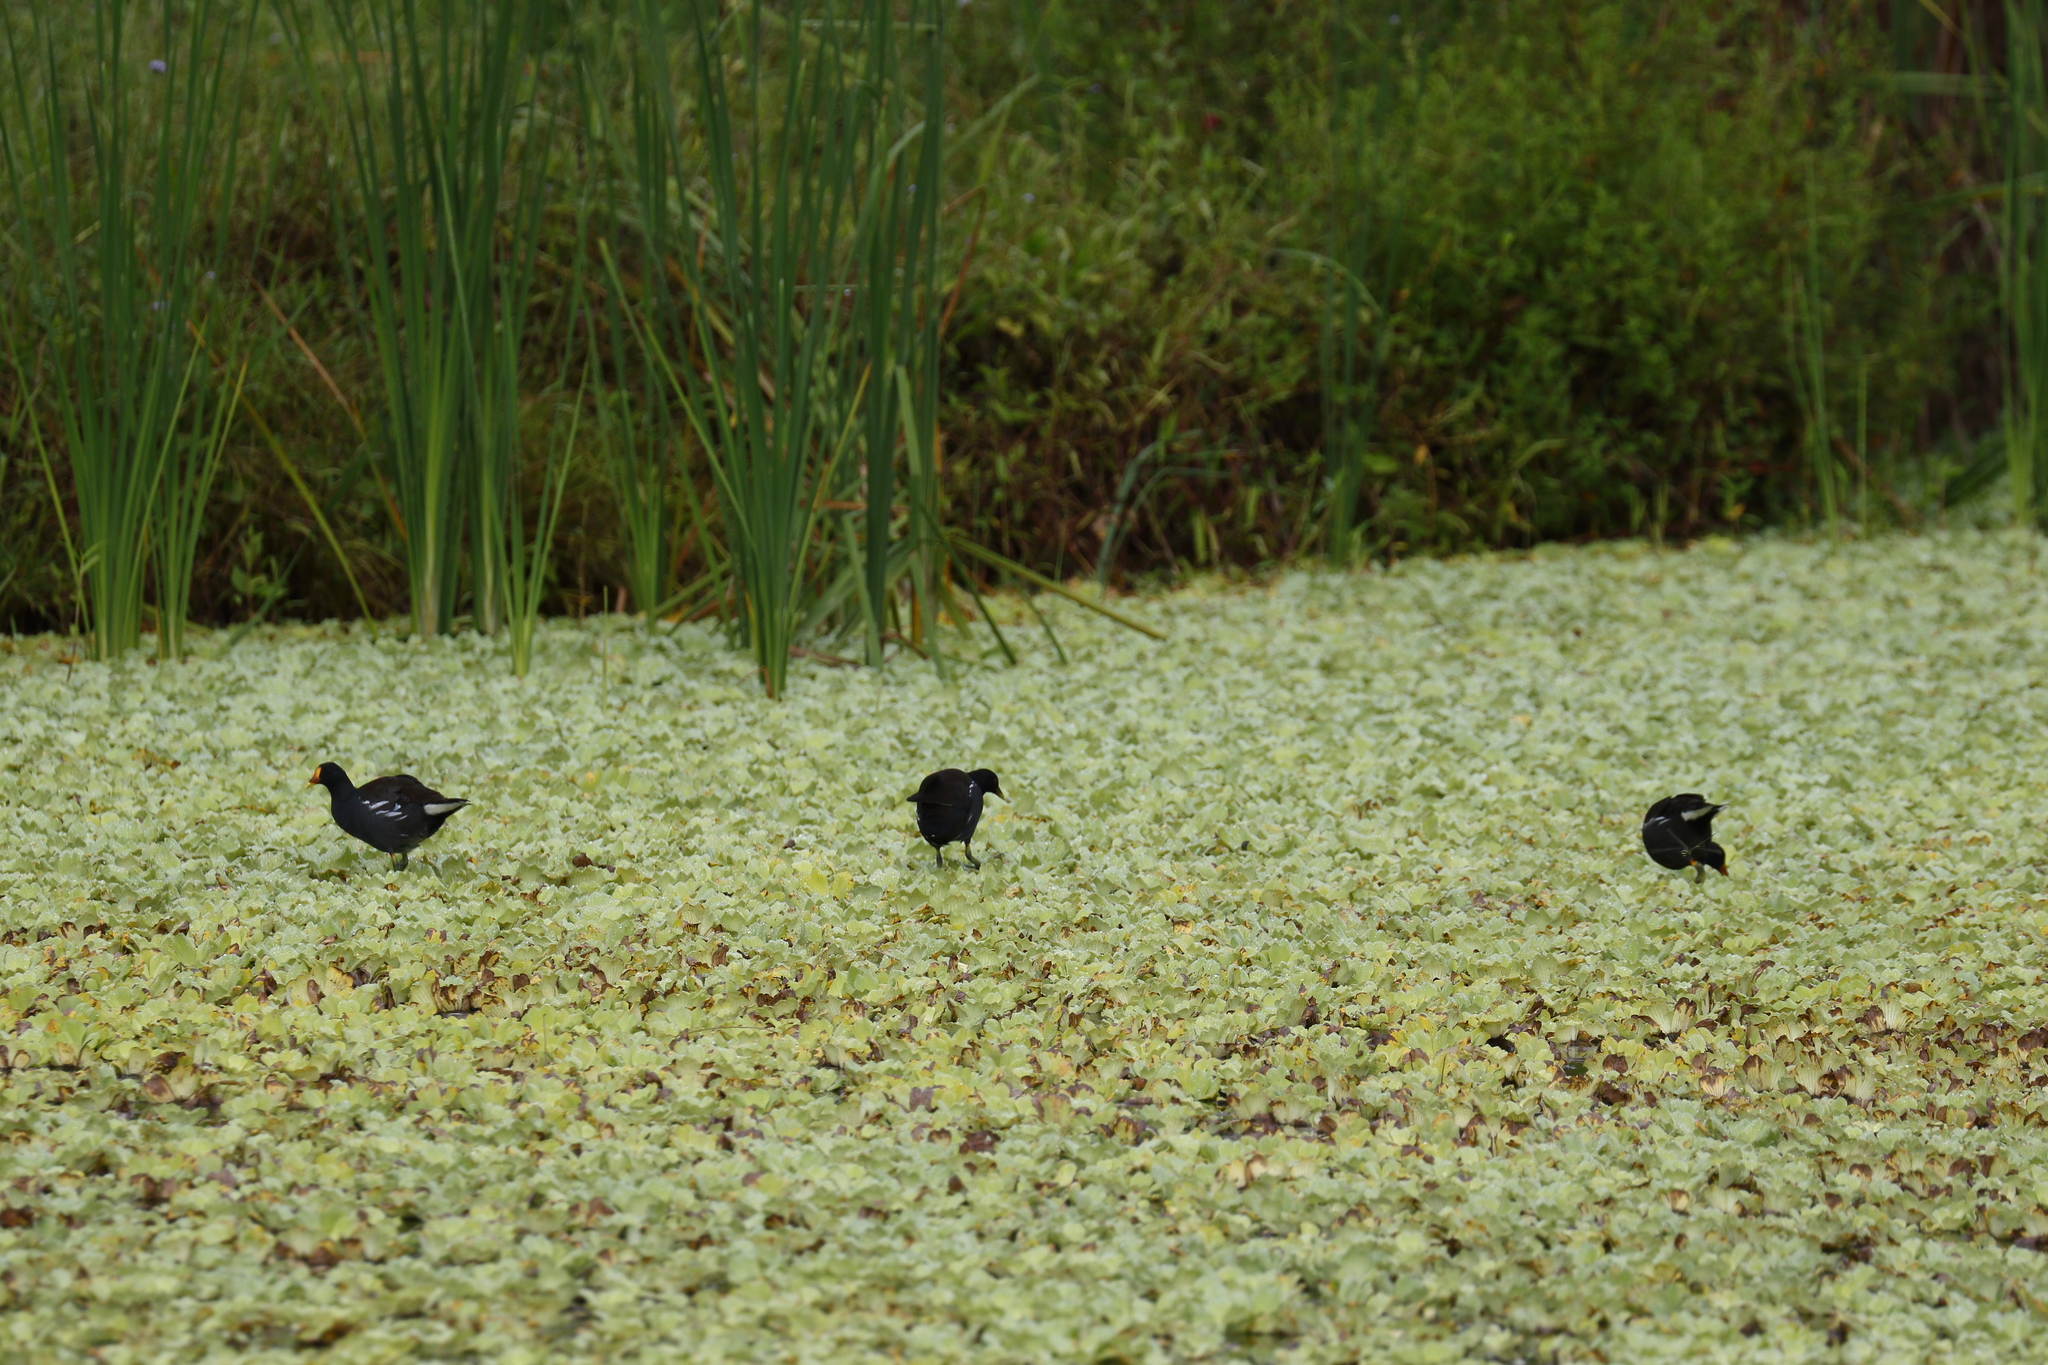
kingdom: Animalia
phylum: Chordata
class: Aves
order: Gruiformes
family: Rallidae
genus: Gallinula
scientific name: Gallinula chloropus
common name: Common moorhen
